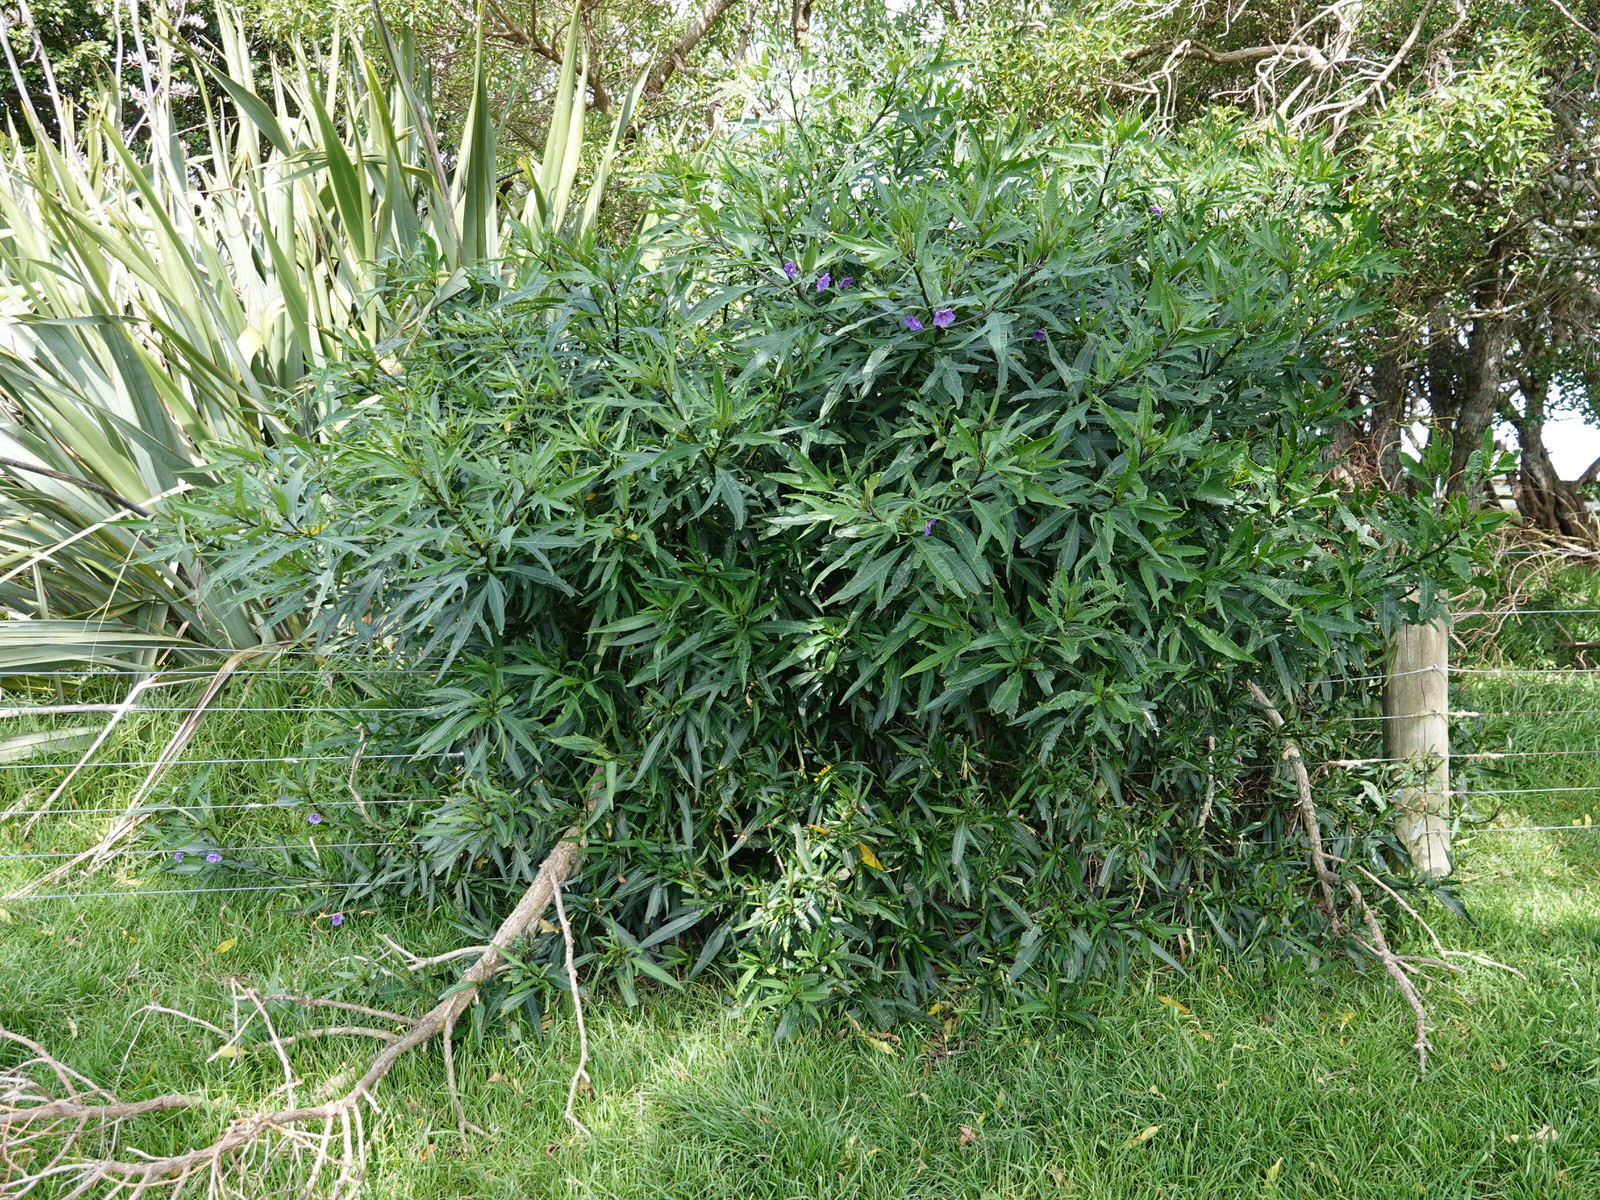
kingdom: Plantae
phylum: Tracheophyta
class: Magnoliopsida
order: Solanales
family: Solanaceae
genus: Solanum
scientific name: Solanum laciniatum
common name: Kangaroo-apple
